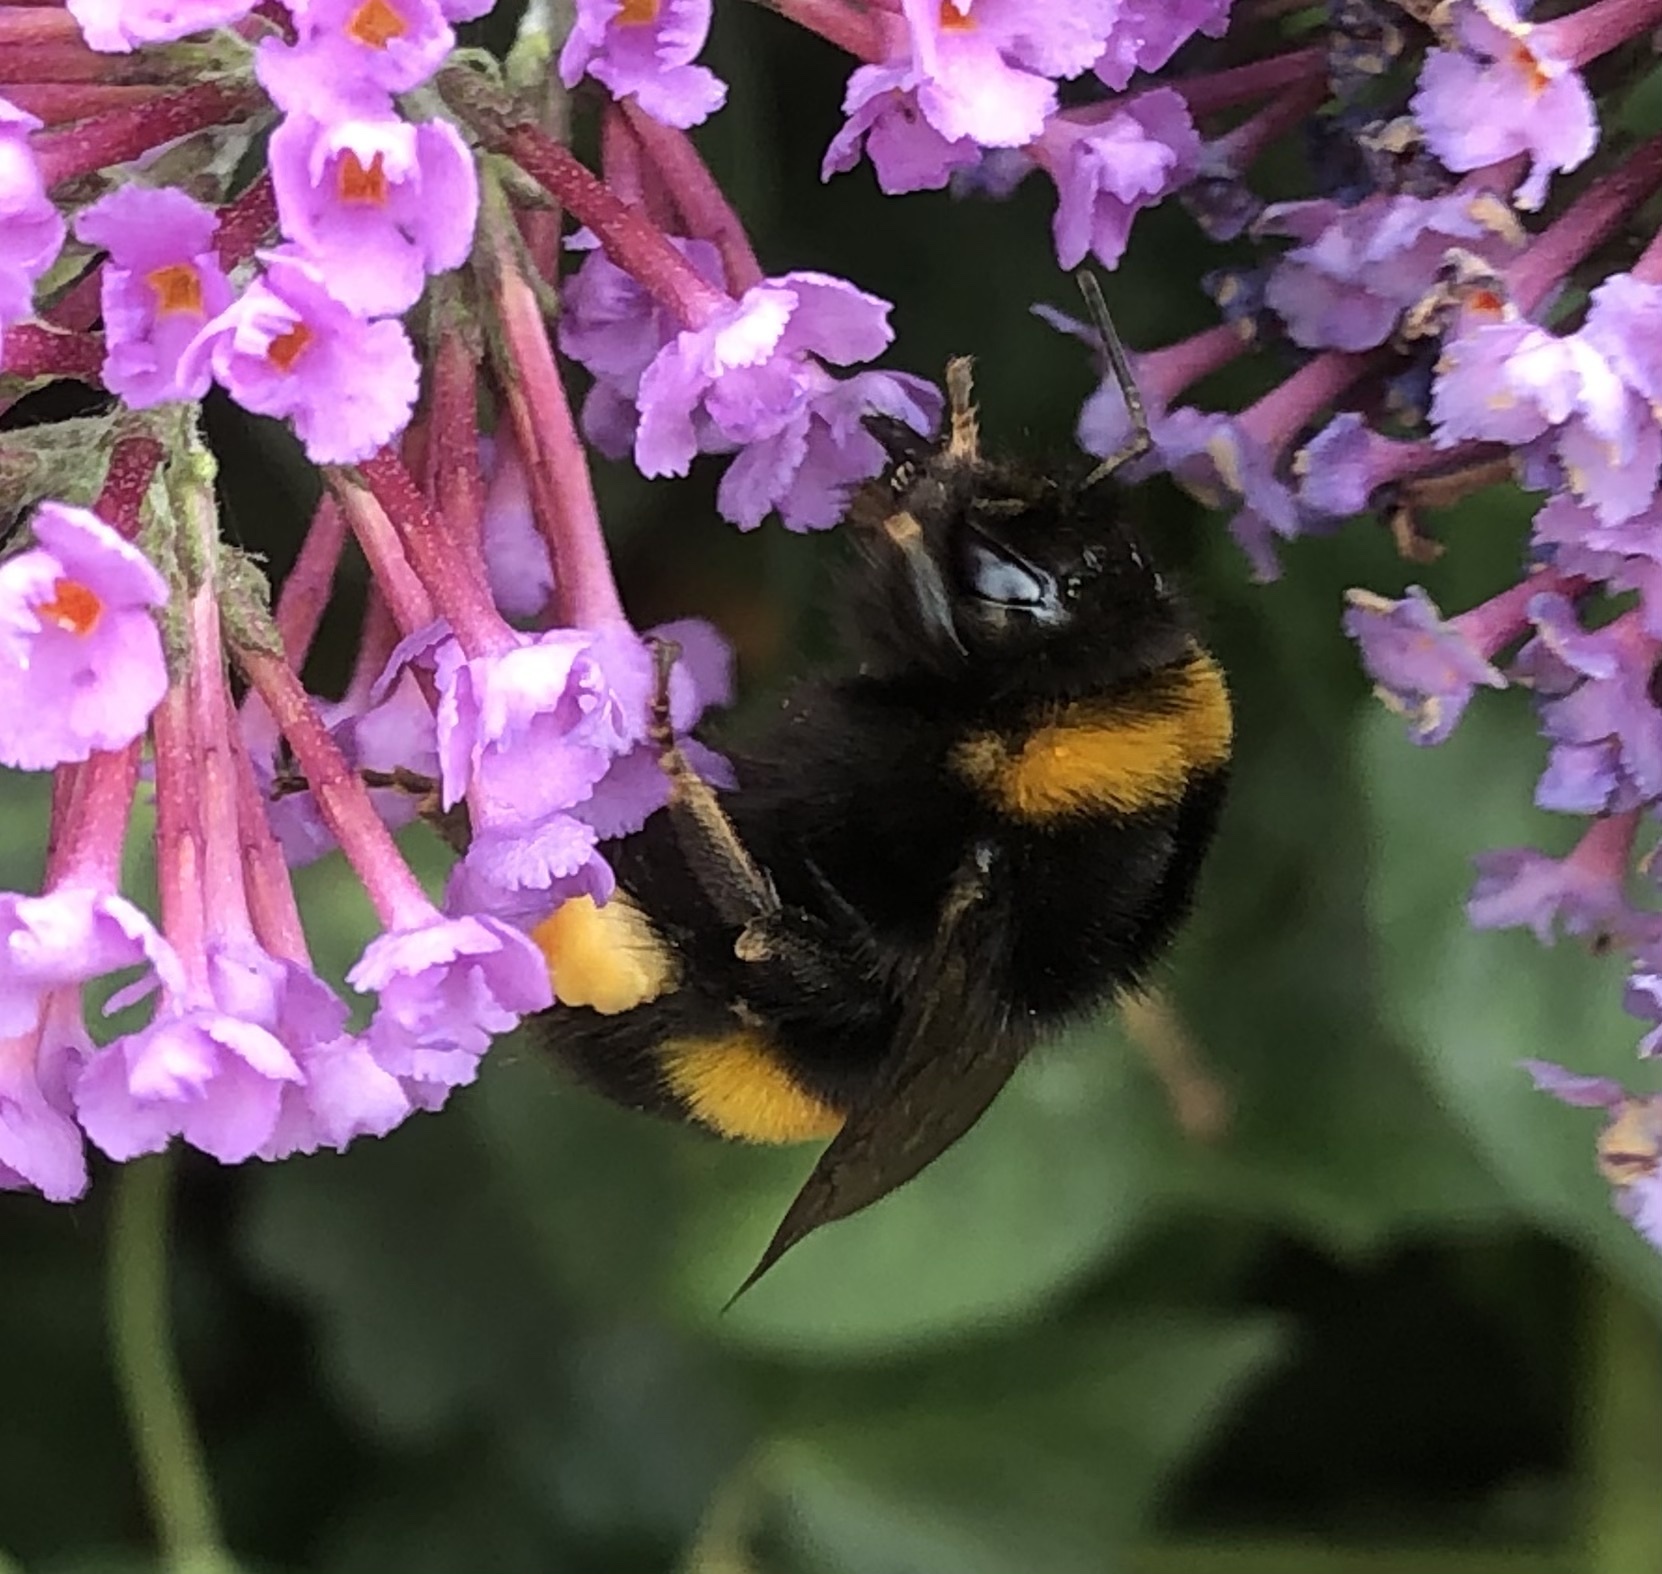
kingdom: Animalia
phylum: Arthropoda
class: Insecta
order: Hymenoptera
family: Apidae
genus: Bombus
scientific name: Bombus terrestris
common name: Buff-tailed bumblebee
